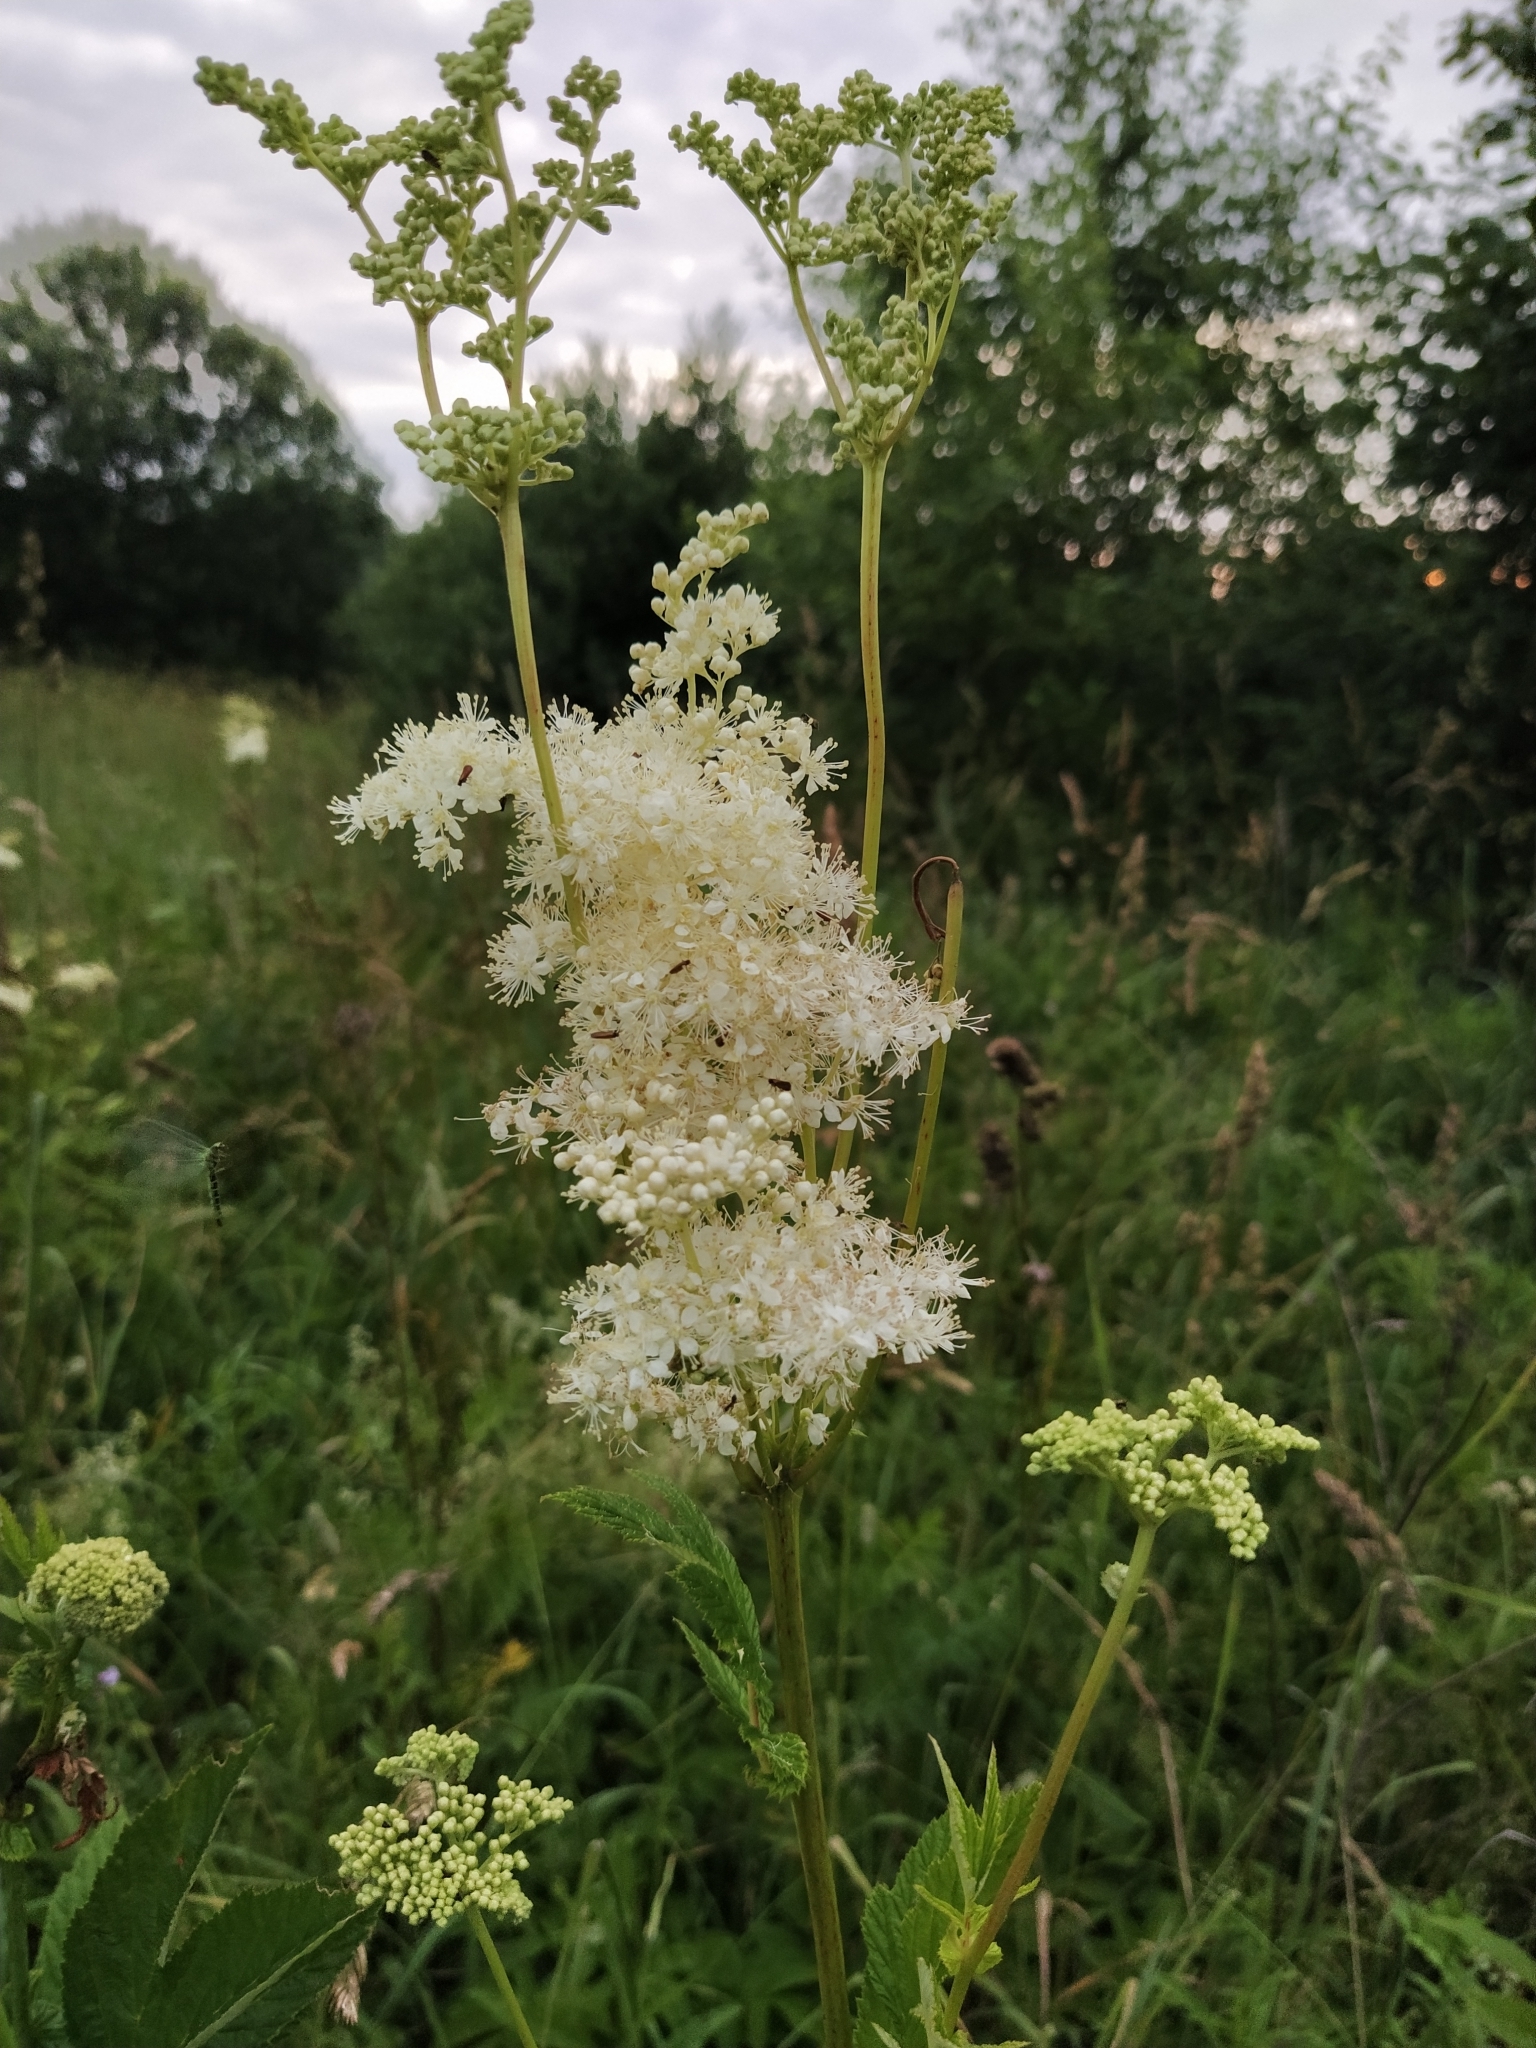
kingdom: Plantae
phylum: Tracheophyta
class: Magnoliopsida
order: Rosales
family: Rosaceae
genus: Filipendula
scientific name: Filipendula ulmaria
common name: Meadowsweet
